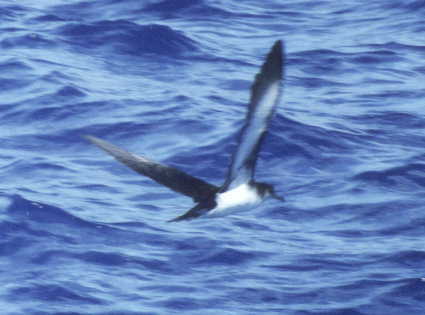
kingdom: Animalia
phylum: Chordata
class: Aves
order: Procellariiformes
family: Procellariidae
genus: Puffinus
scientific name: Puffinus puffinus
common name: Manx shearwater
